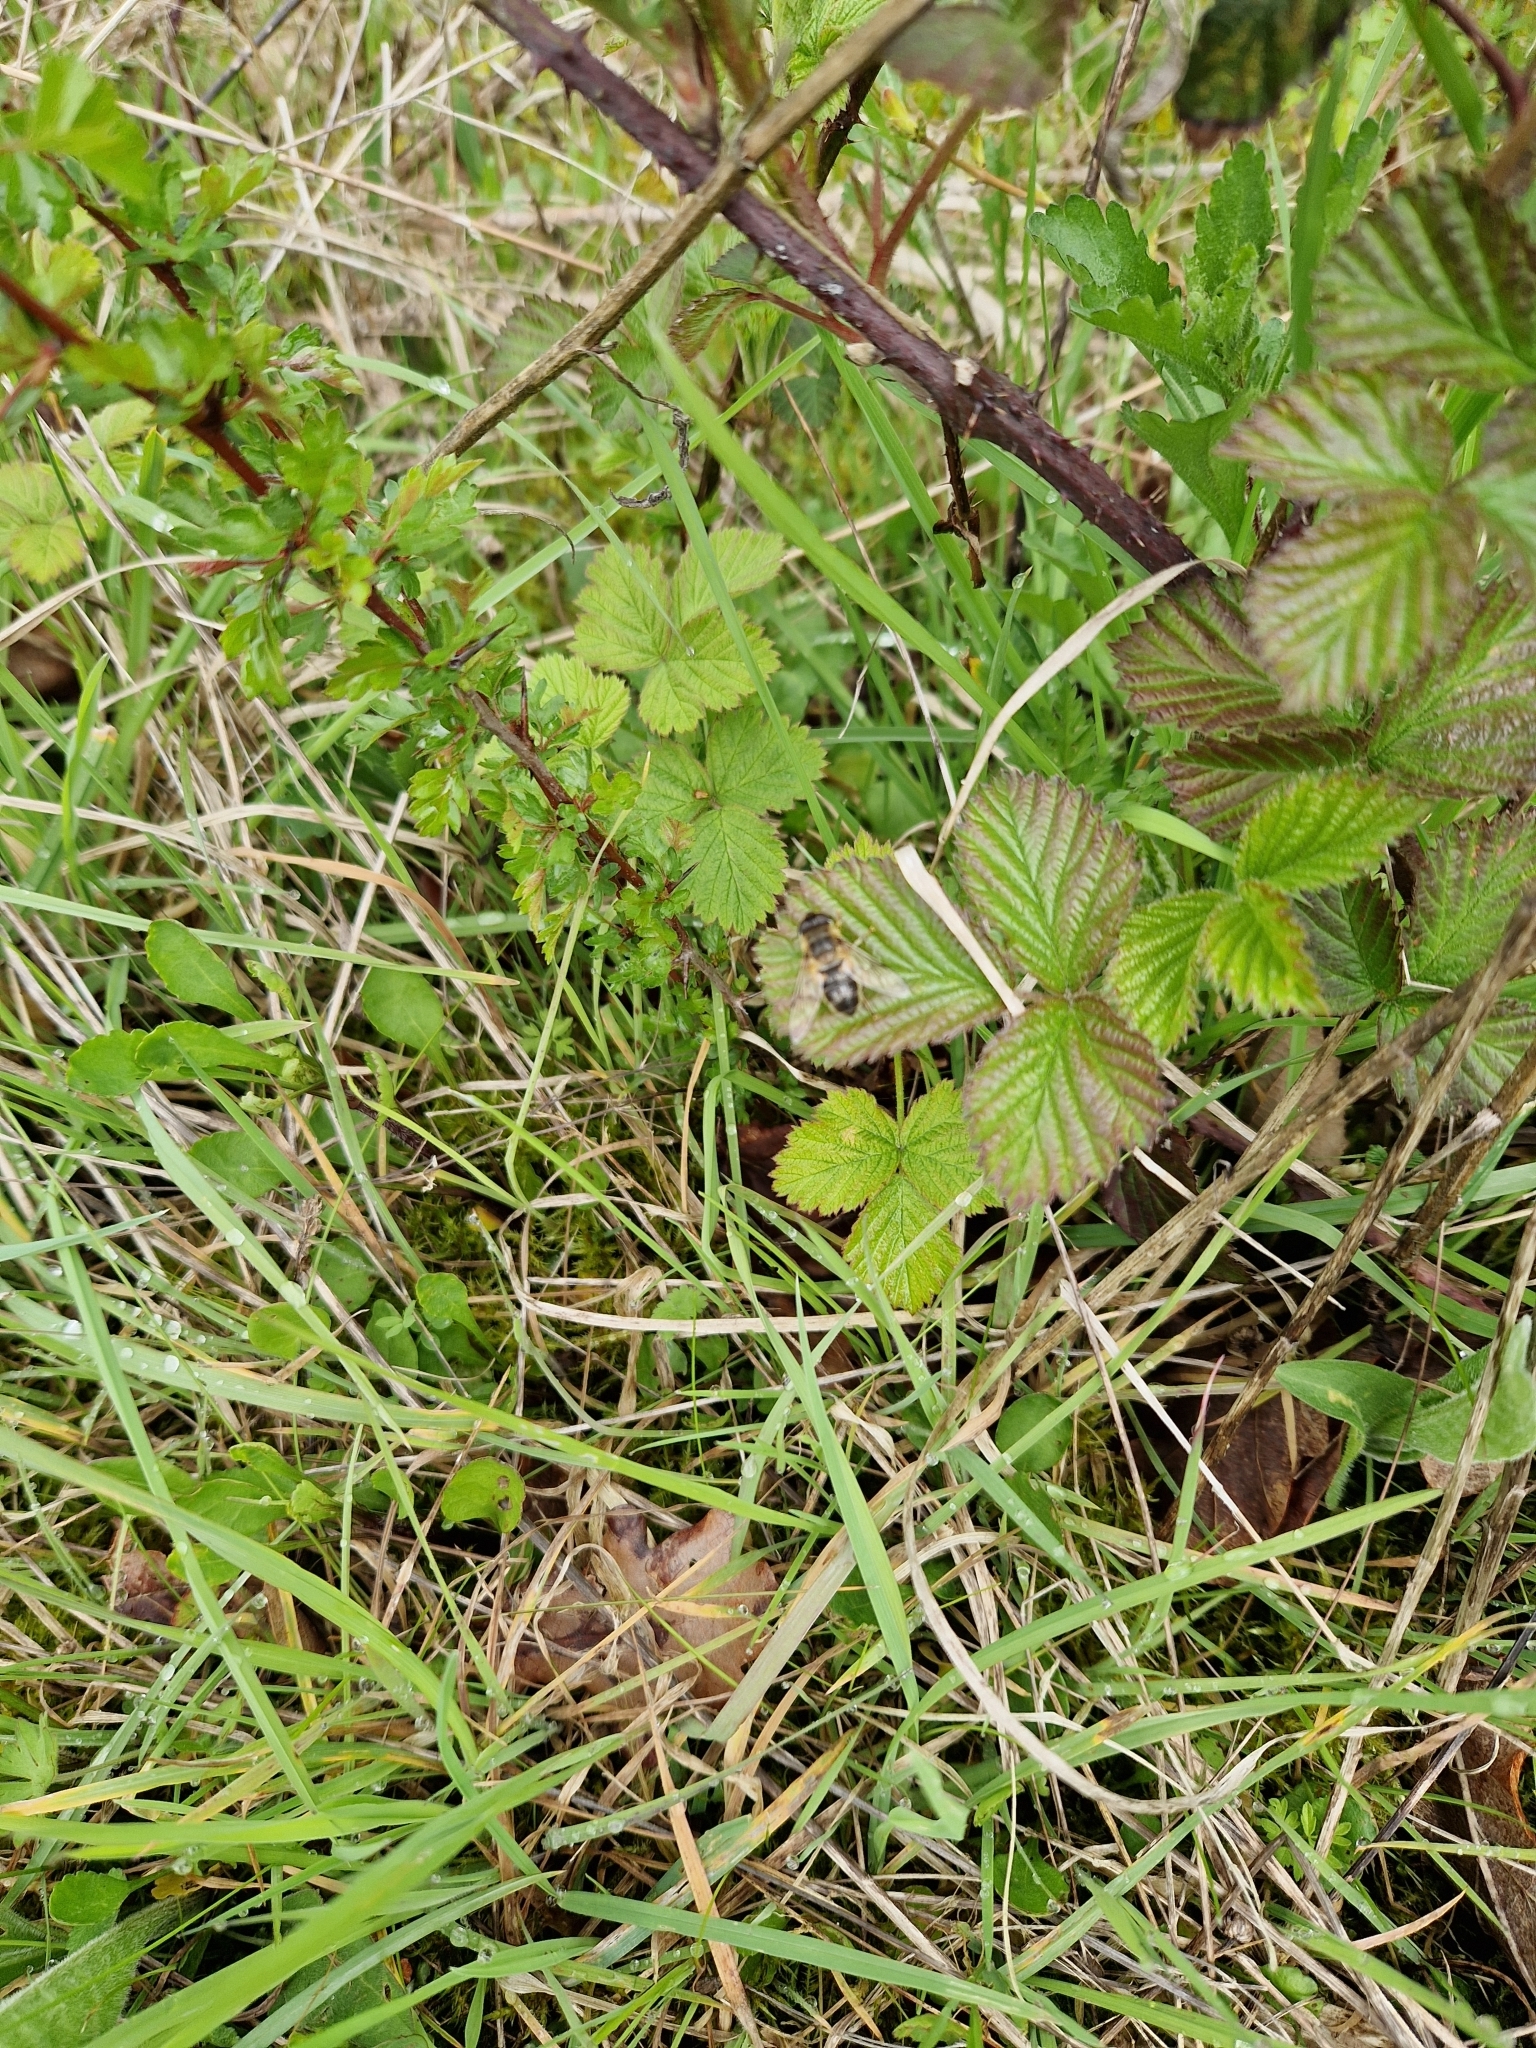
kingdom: Animalia
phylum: Arthropoda
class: Insecta
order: Diptera
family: Syrphidae
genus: Eristalis
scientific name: Eristalis
